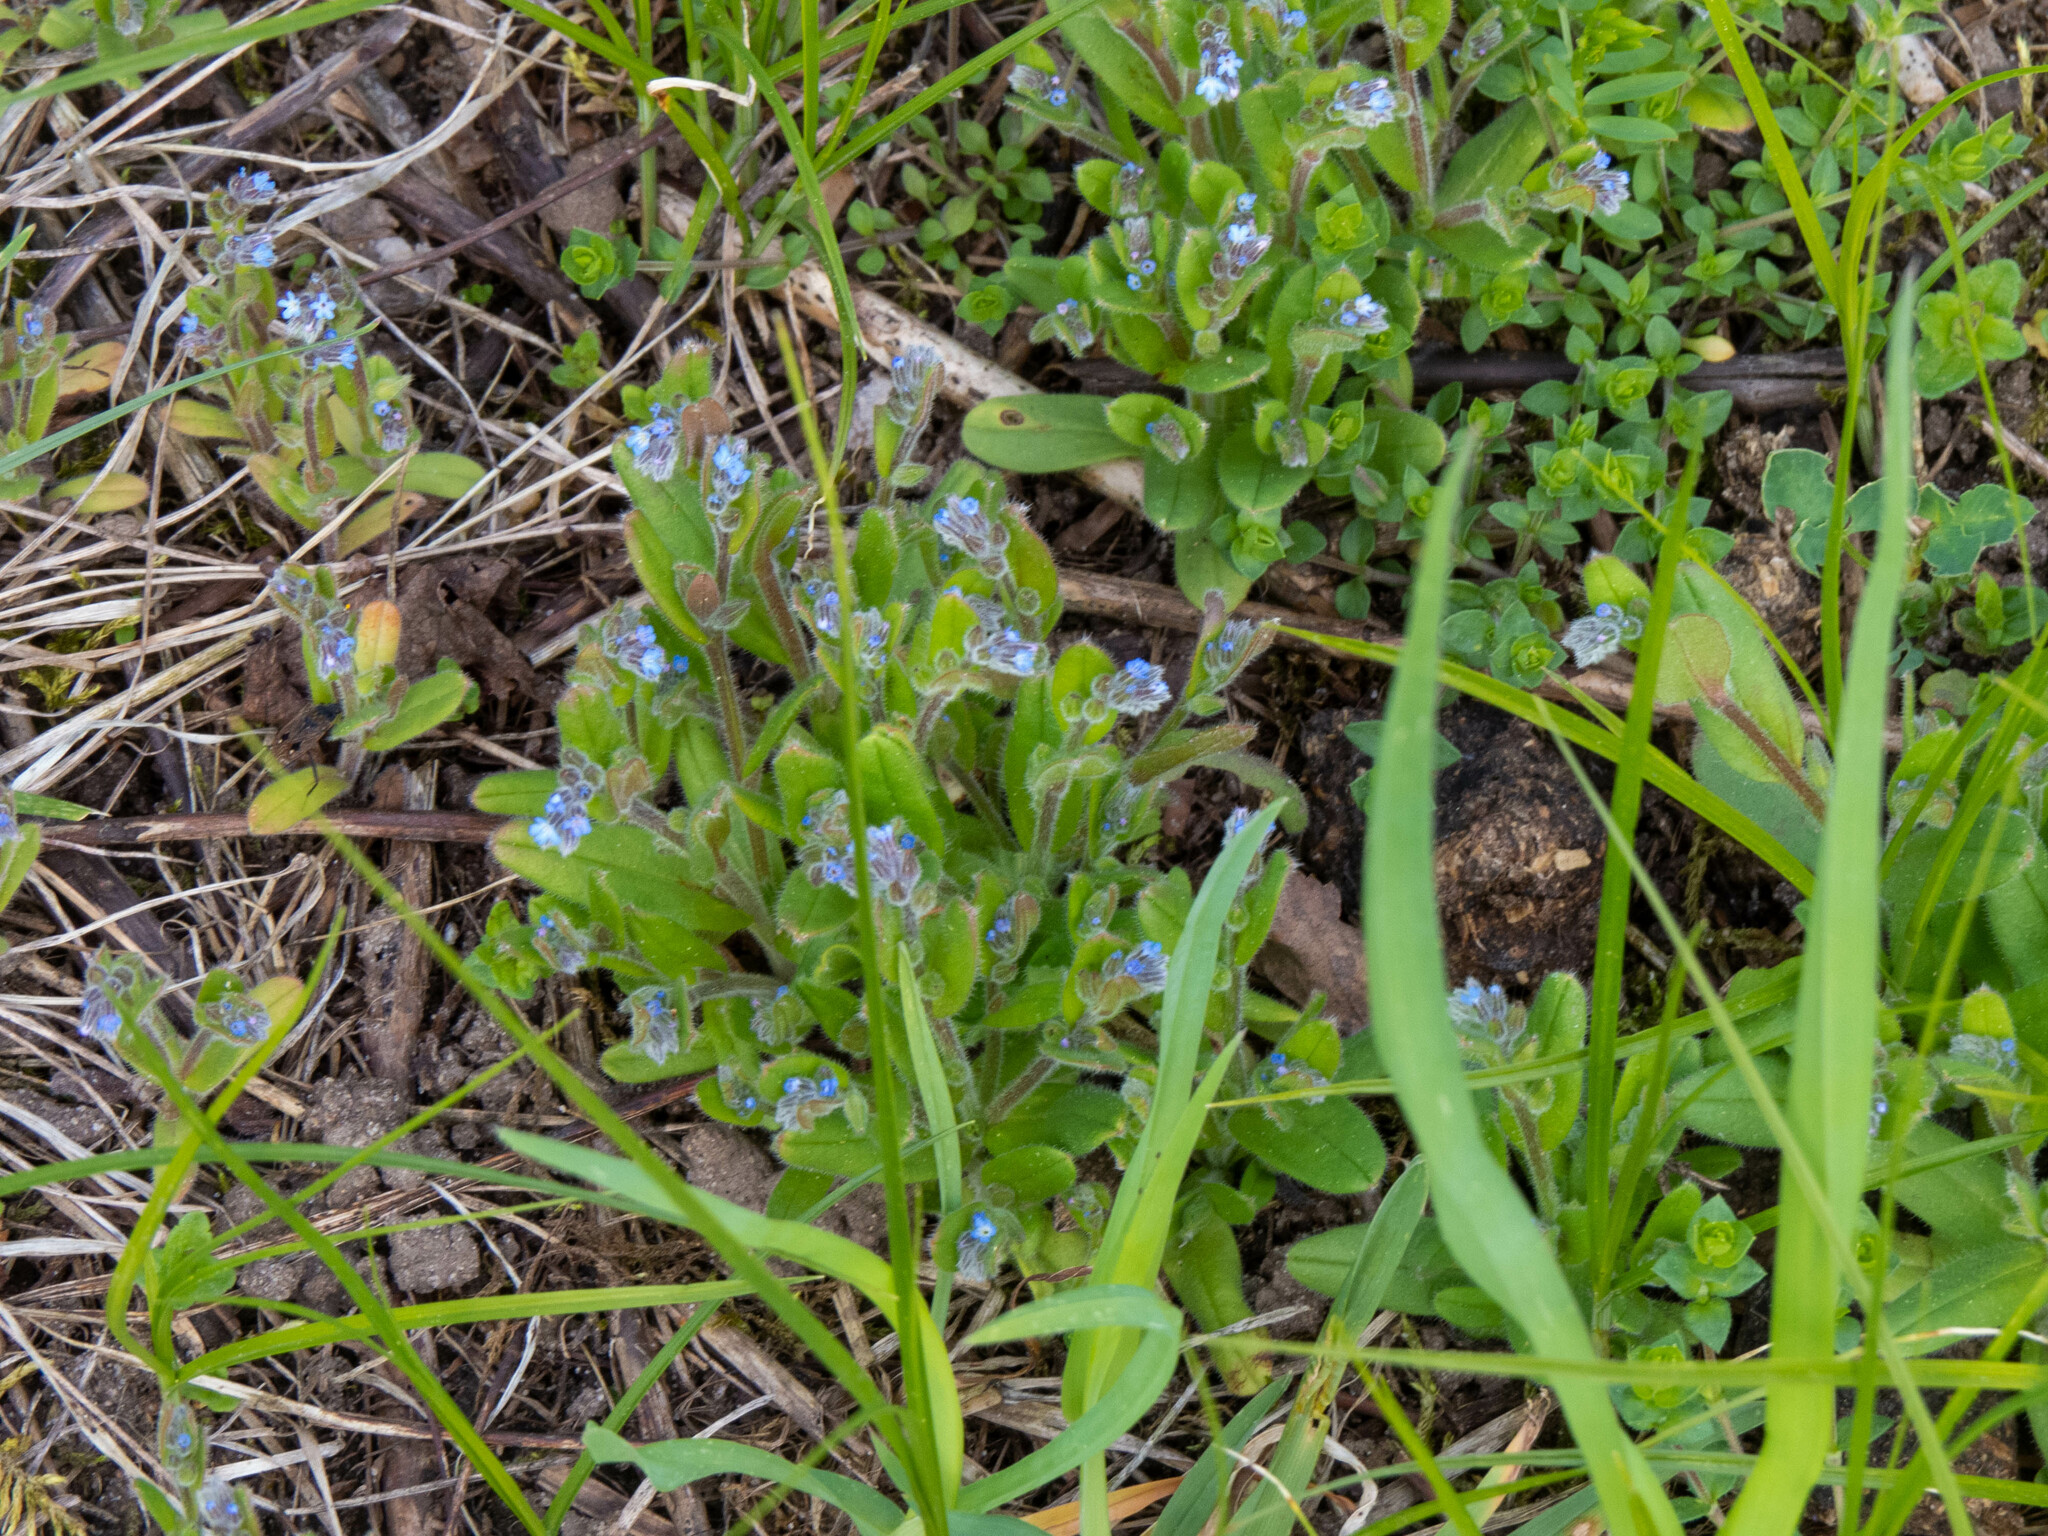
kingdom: Plantae
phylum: Tracheophyta
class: Magnoliopsida
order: Boraginales
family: Boraginaceae
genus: Myosotis
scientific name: Myosotis stricta
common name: Strict forget-me-not
